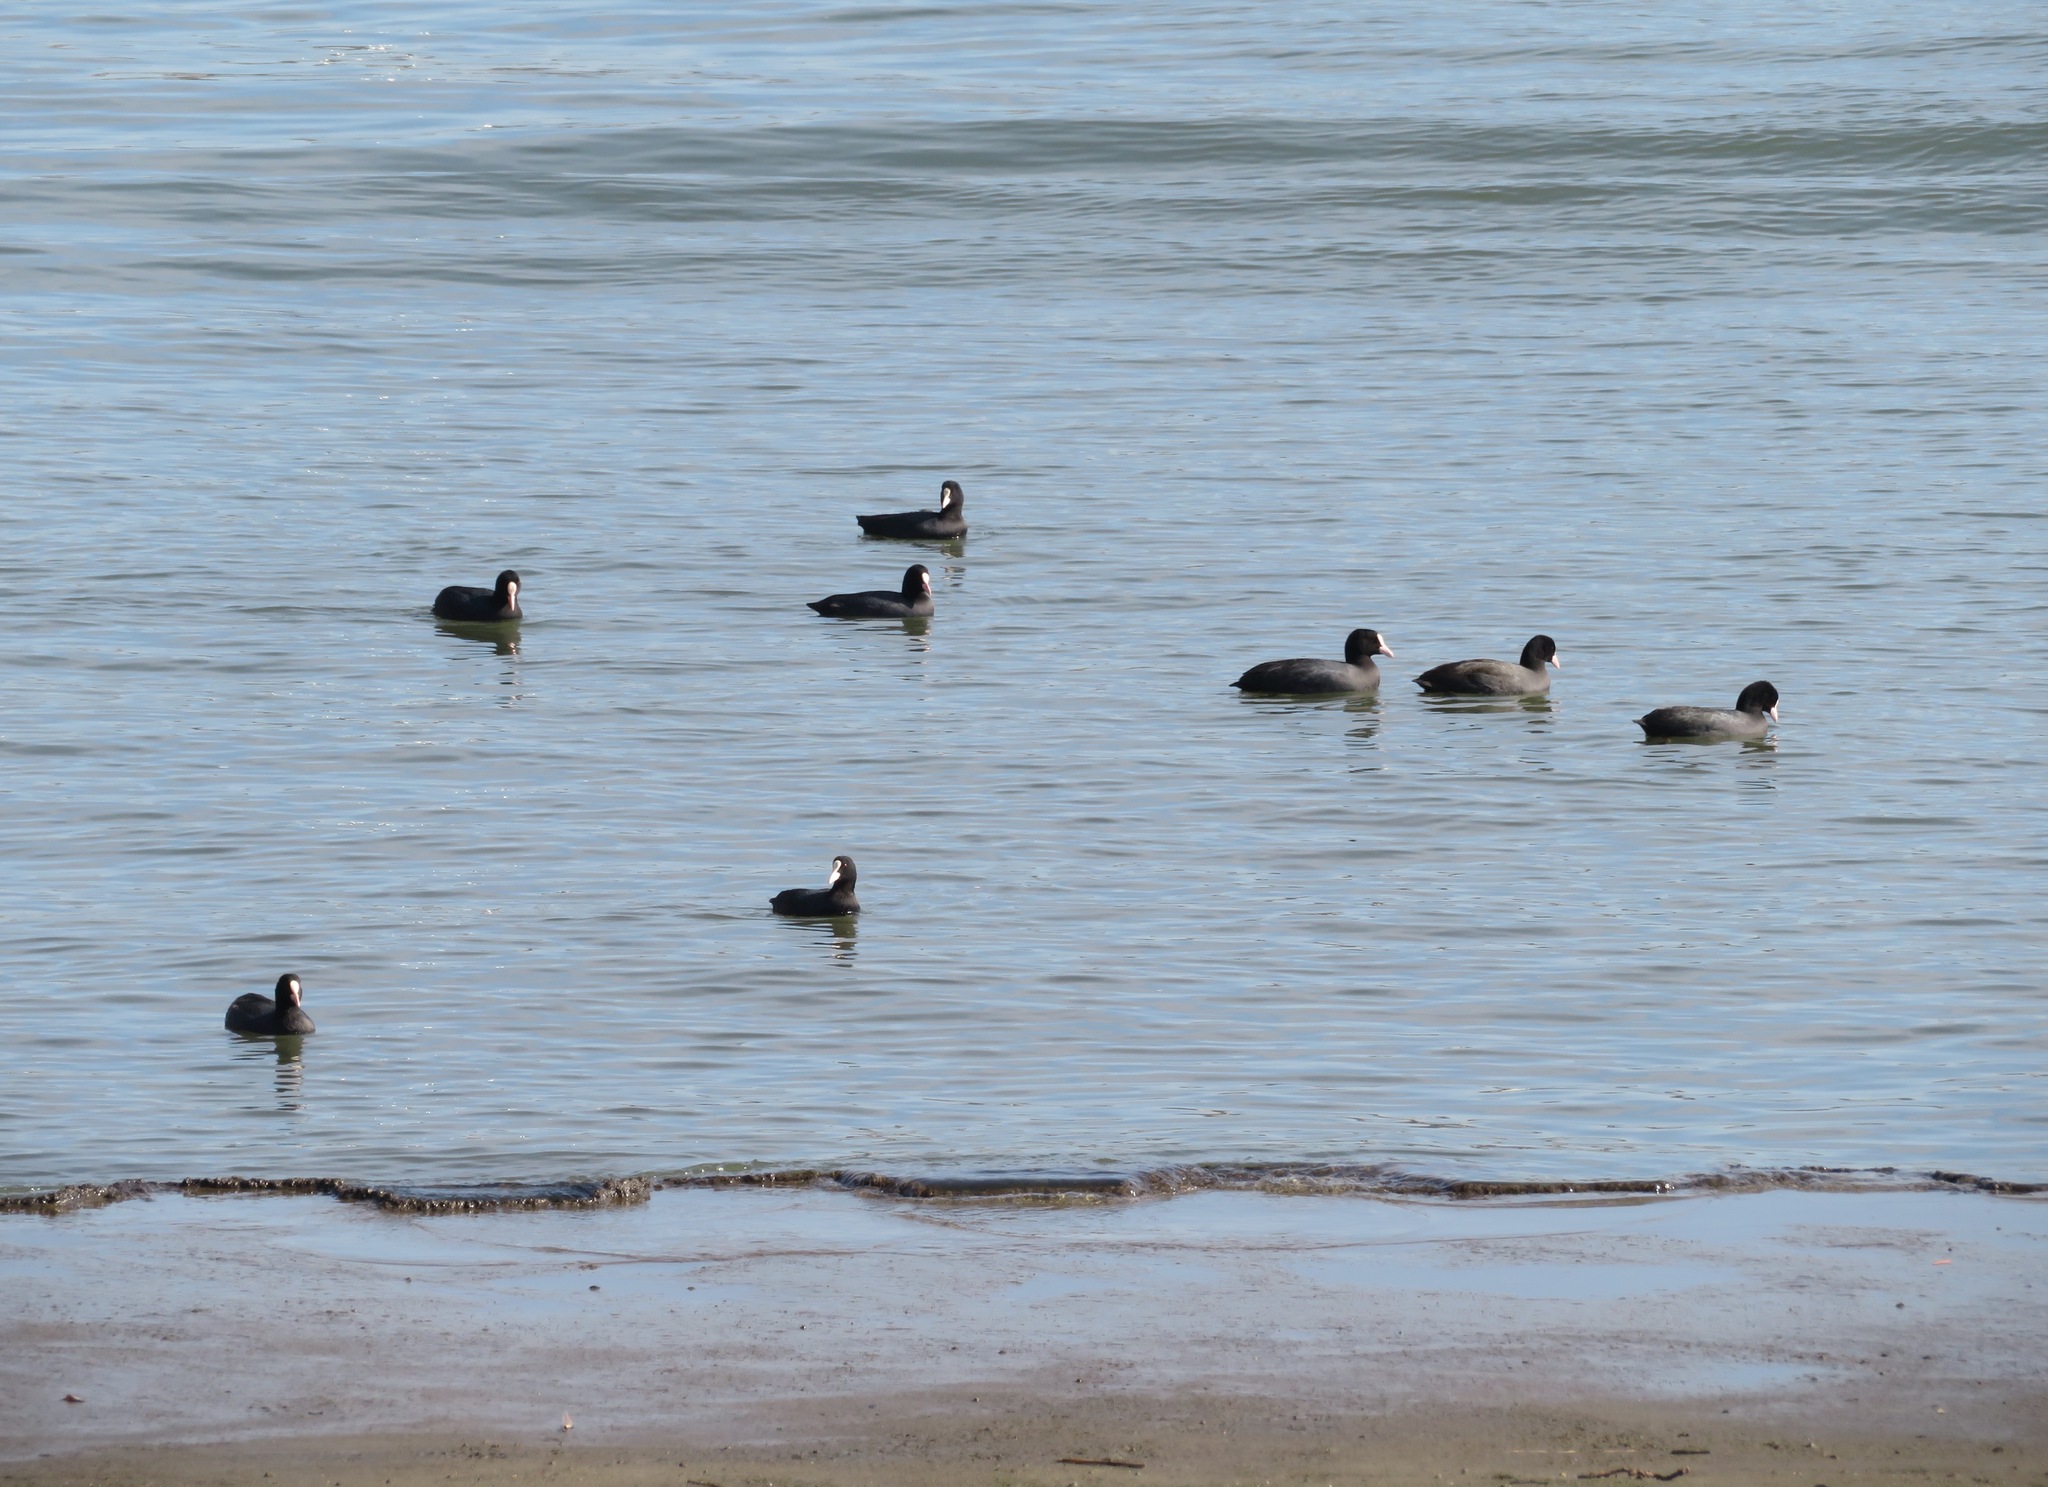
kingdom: Animalia
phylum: Chordata
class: Aves
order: Gruiformes
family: Rallidae
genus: Fulica
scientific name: Fulica atra
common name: Eurasian coot
